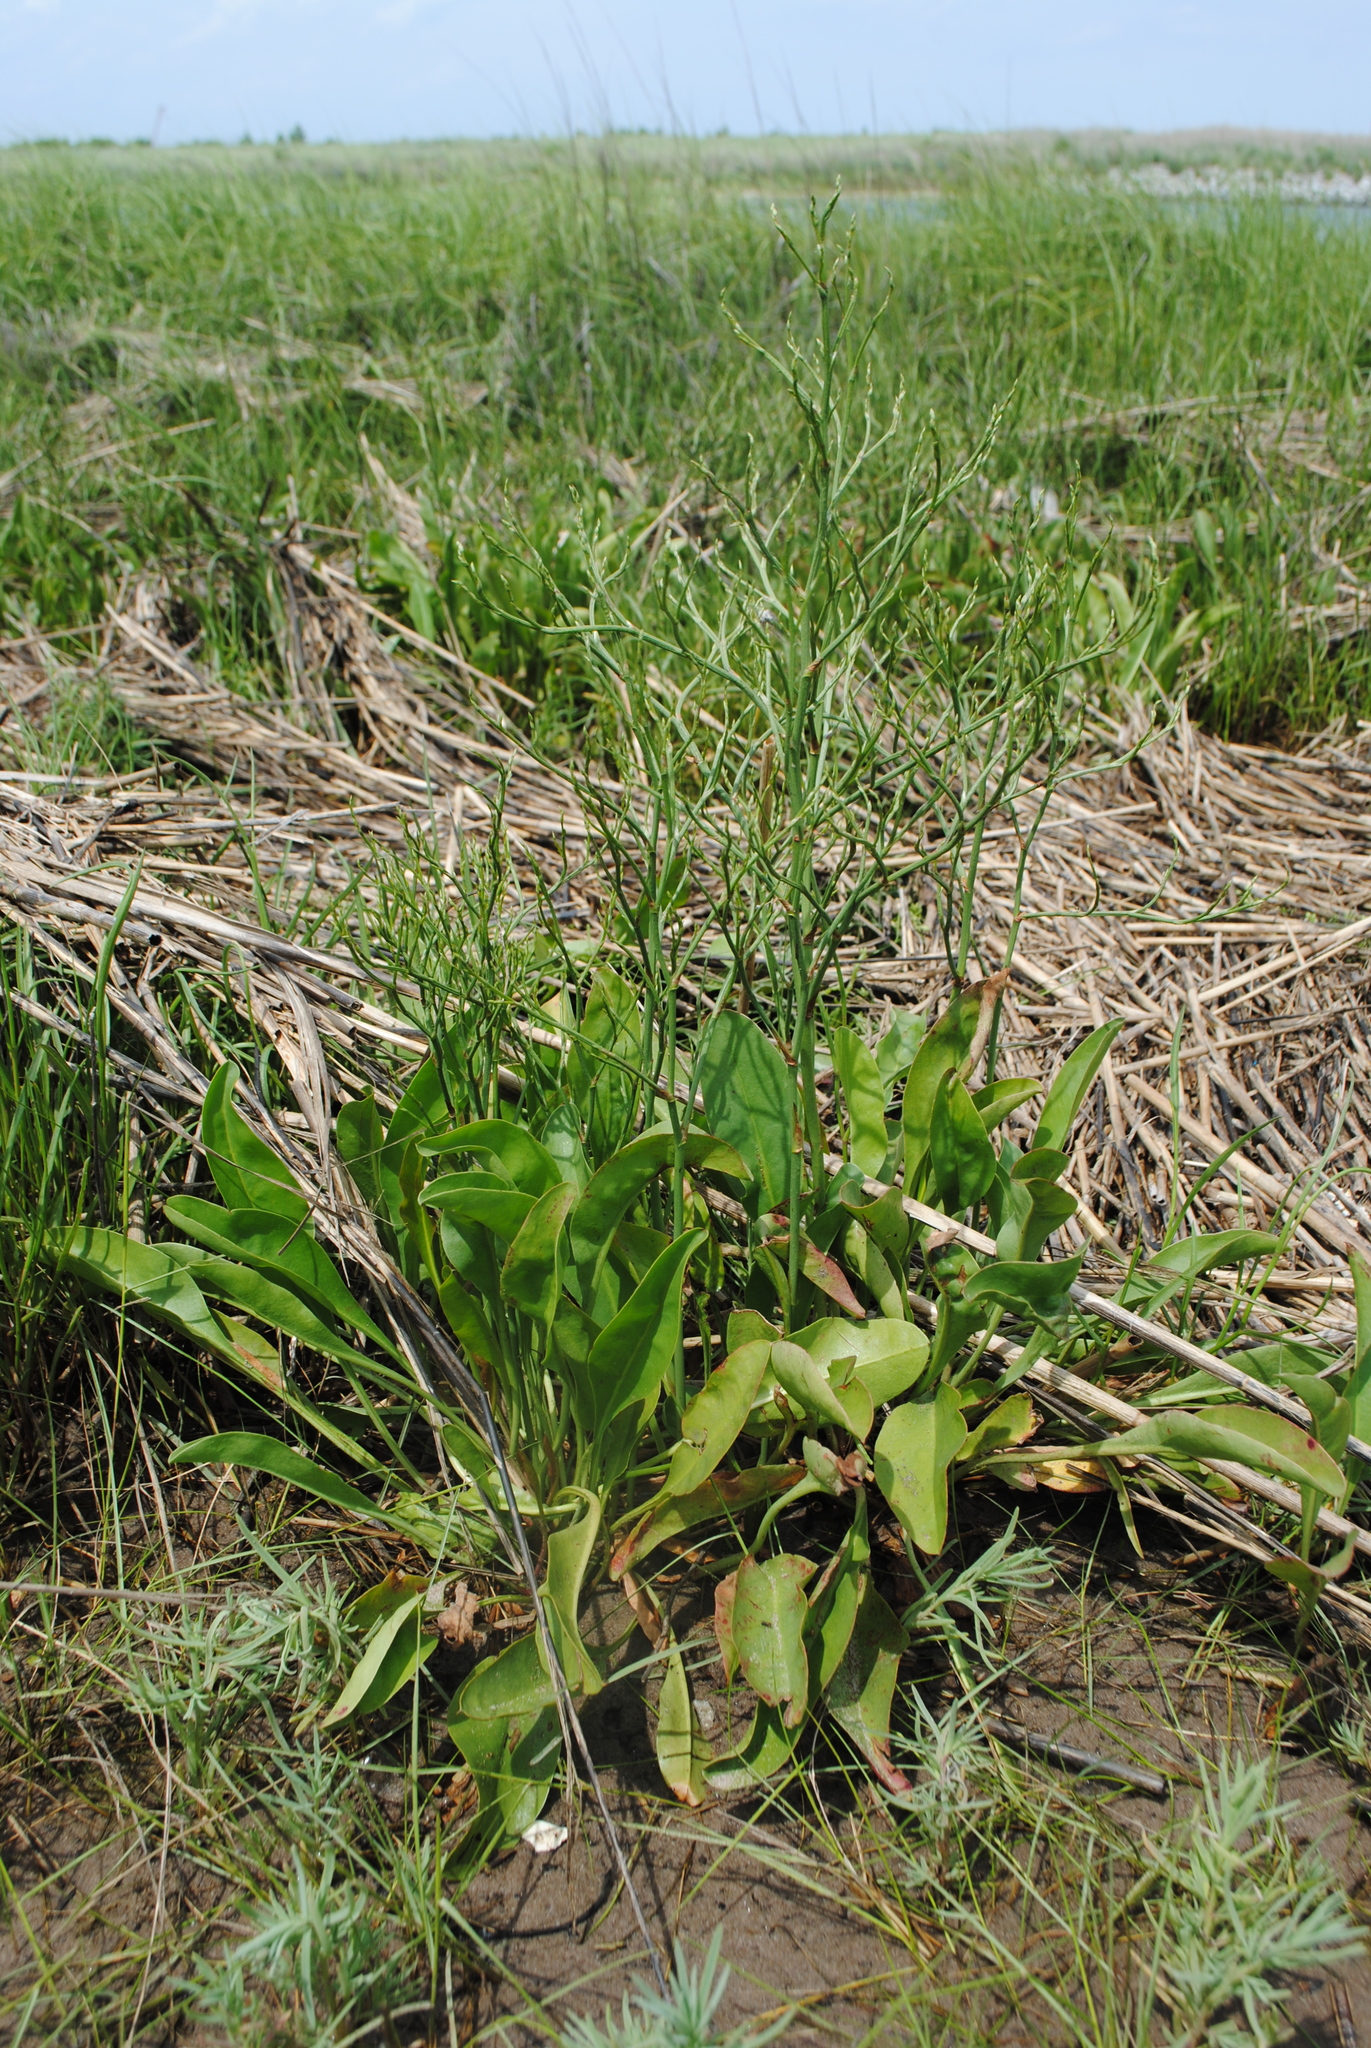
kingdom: Plantae
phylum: Tracheophyta
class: Magnoliopsida
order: Caryophyllales
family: Plumbaginaceae
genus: Limonium
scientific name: Limonium carolinianum
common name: Carolina sea lavender
